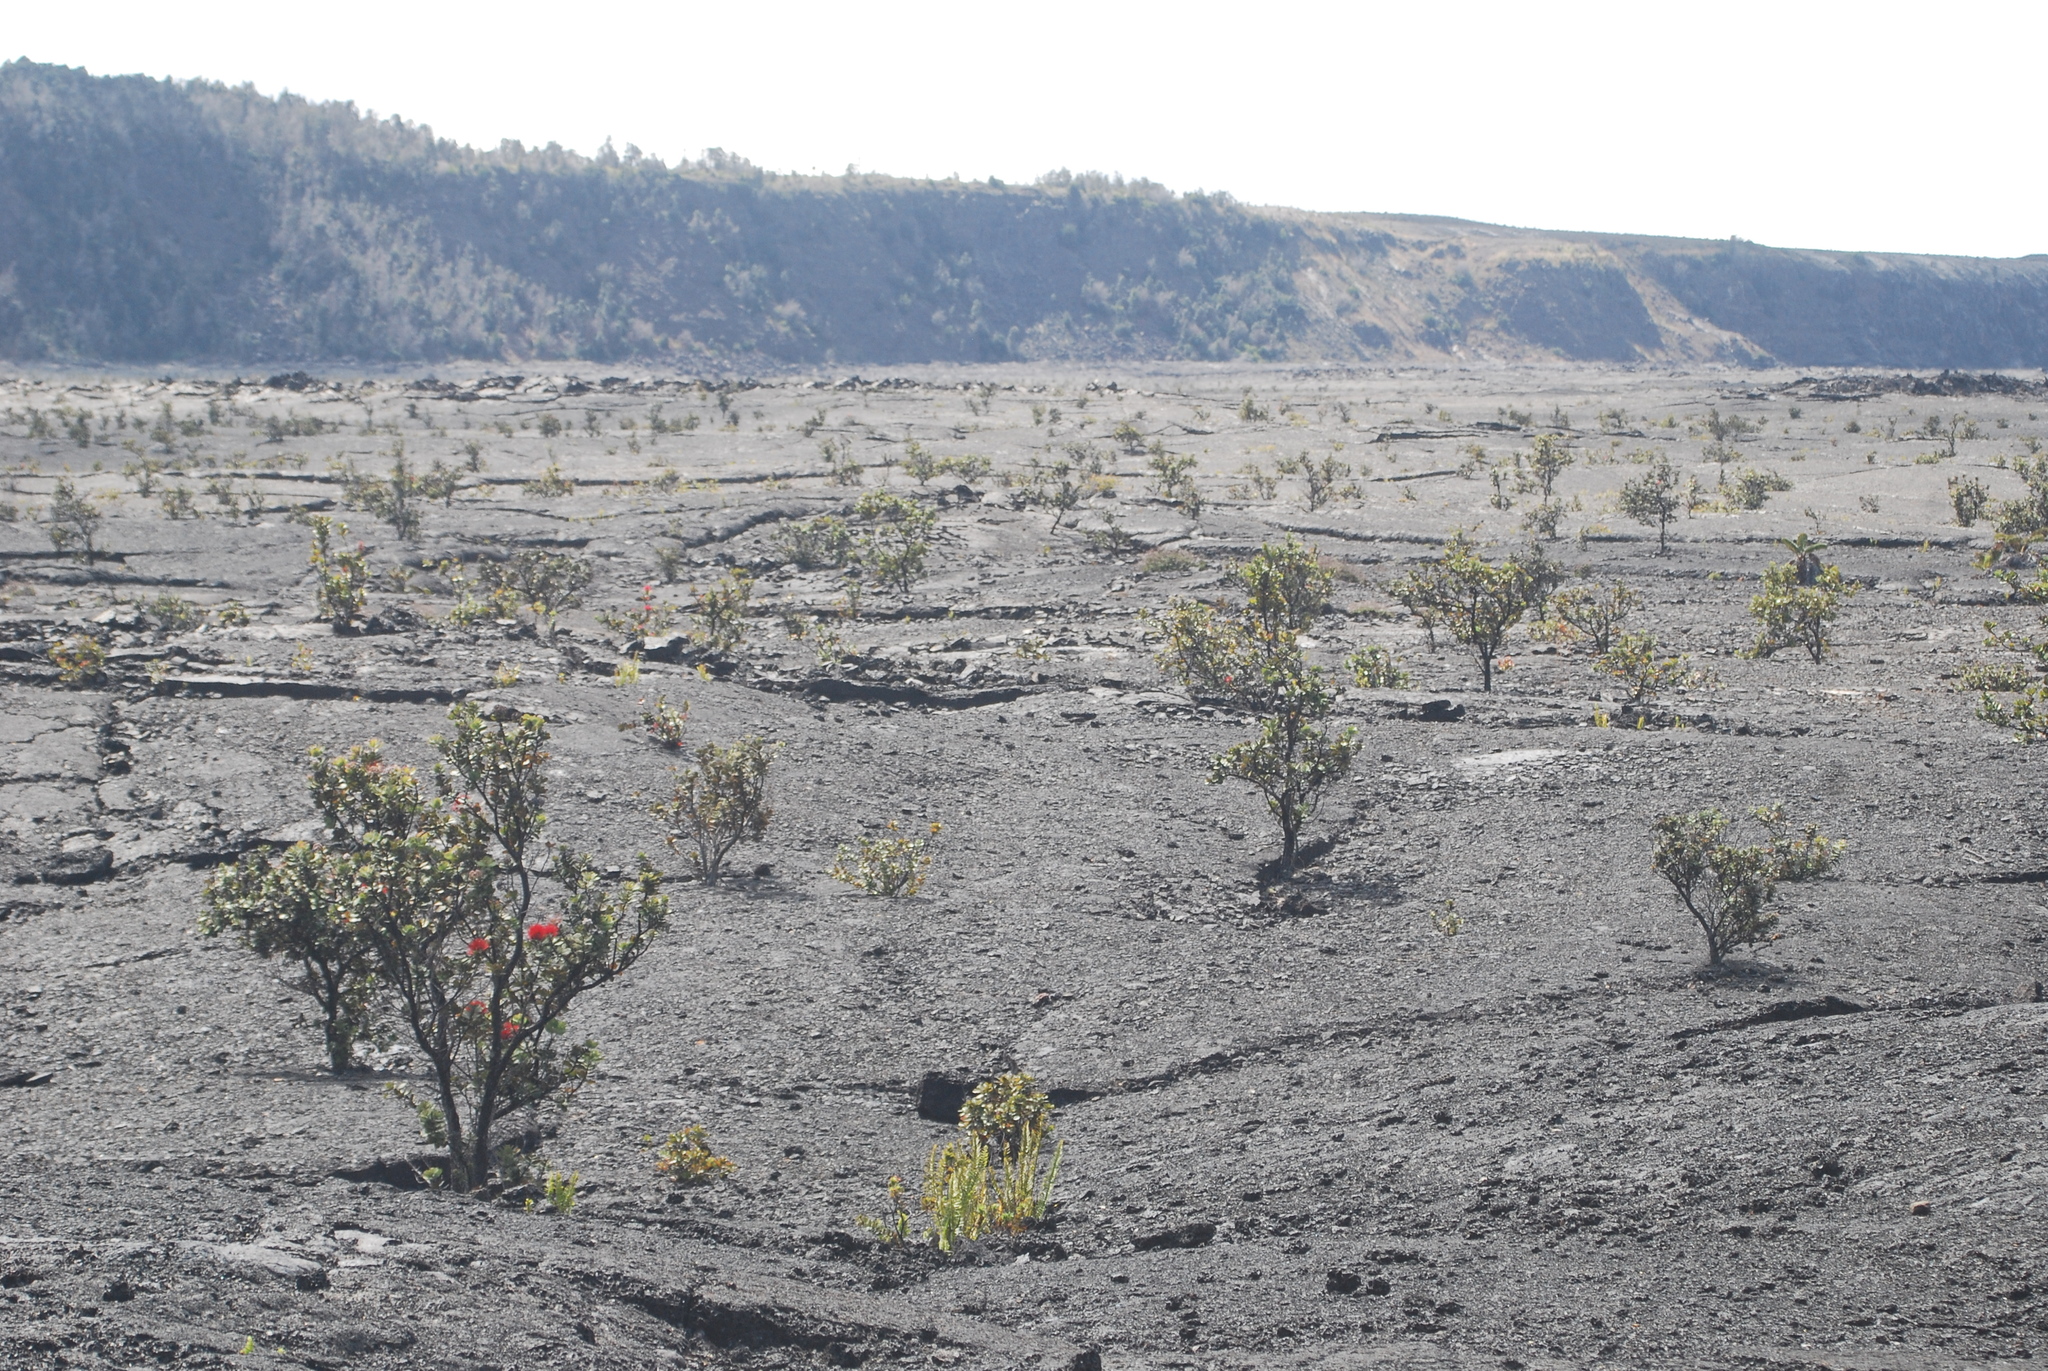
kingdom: Plantae
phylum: Tracheophyta
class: Magnoliopsida
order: Myrtales
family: Myrtaceae
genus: Metrosideros
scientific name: Metrosideros polymorpha
